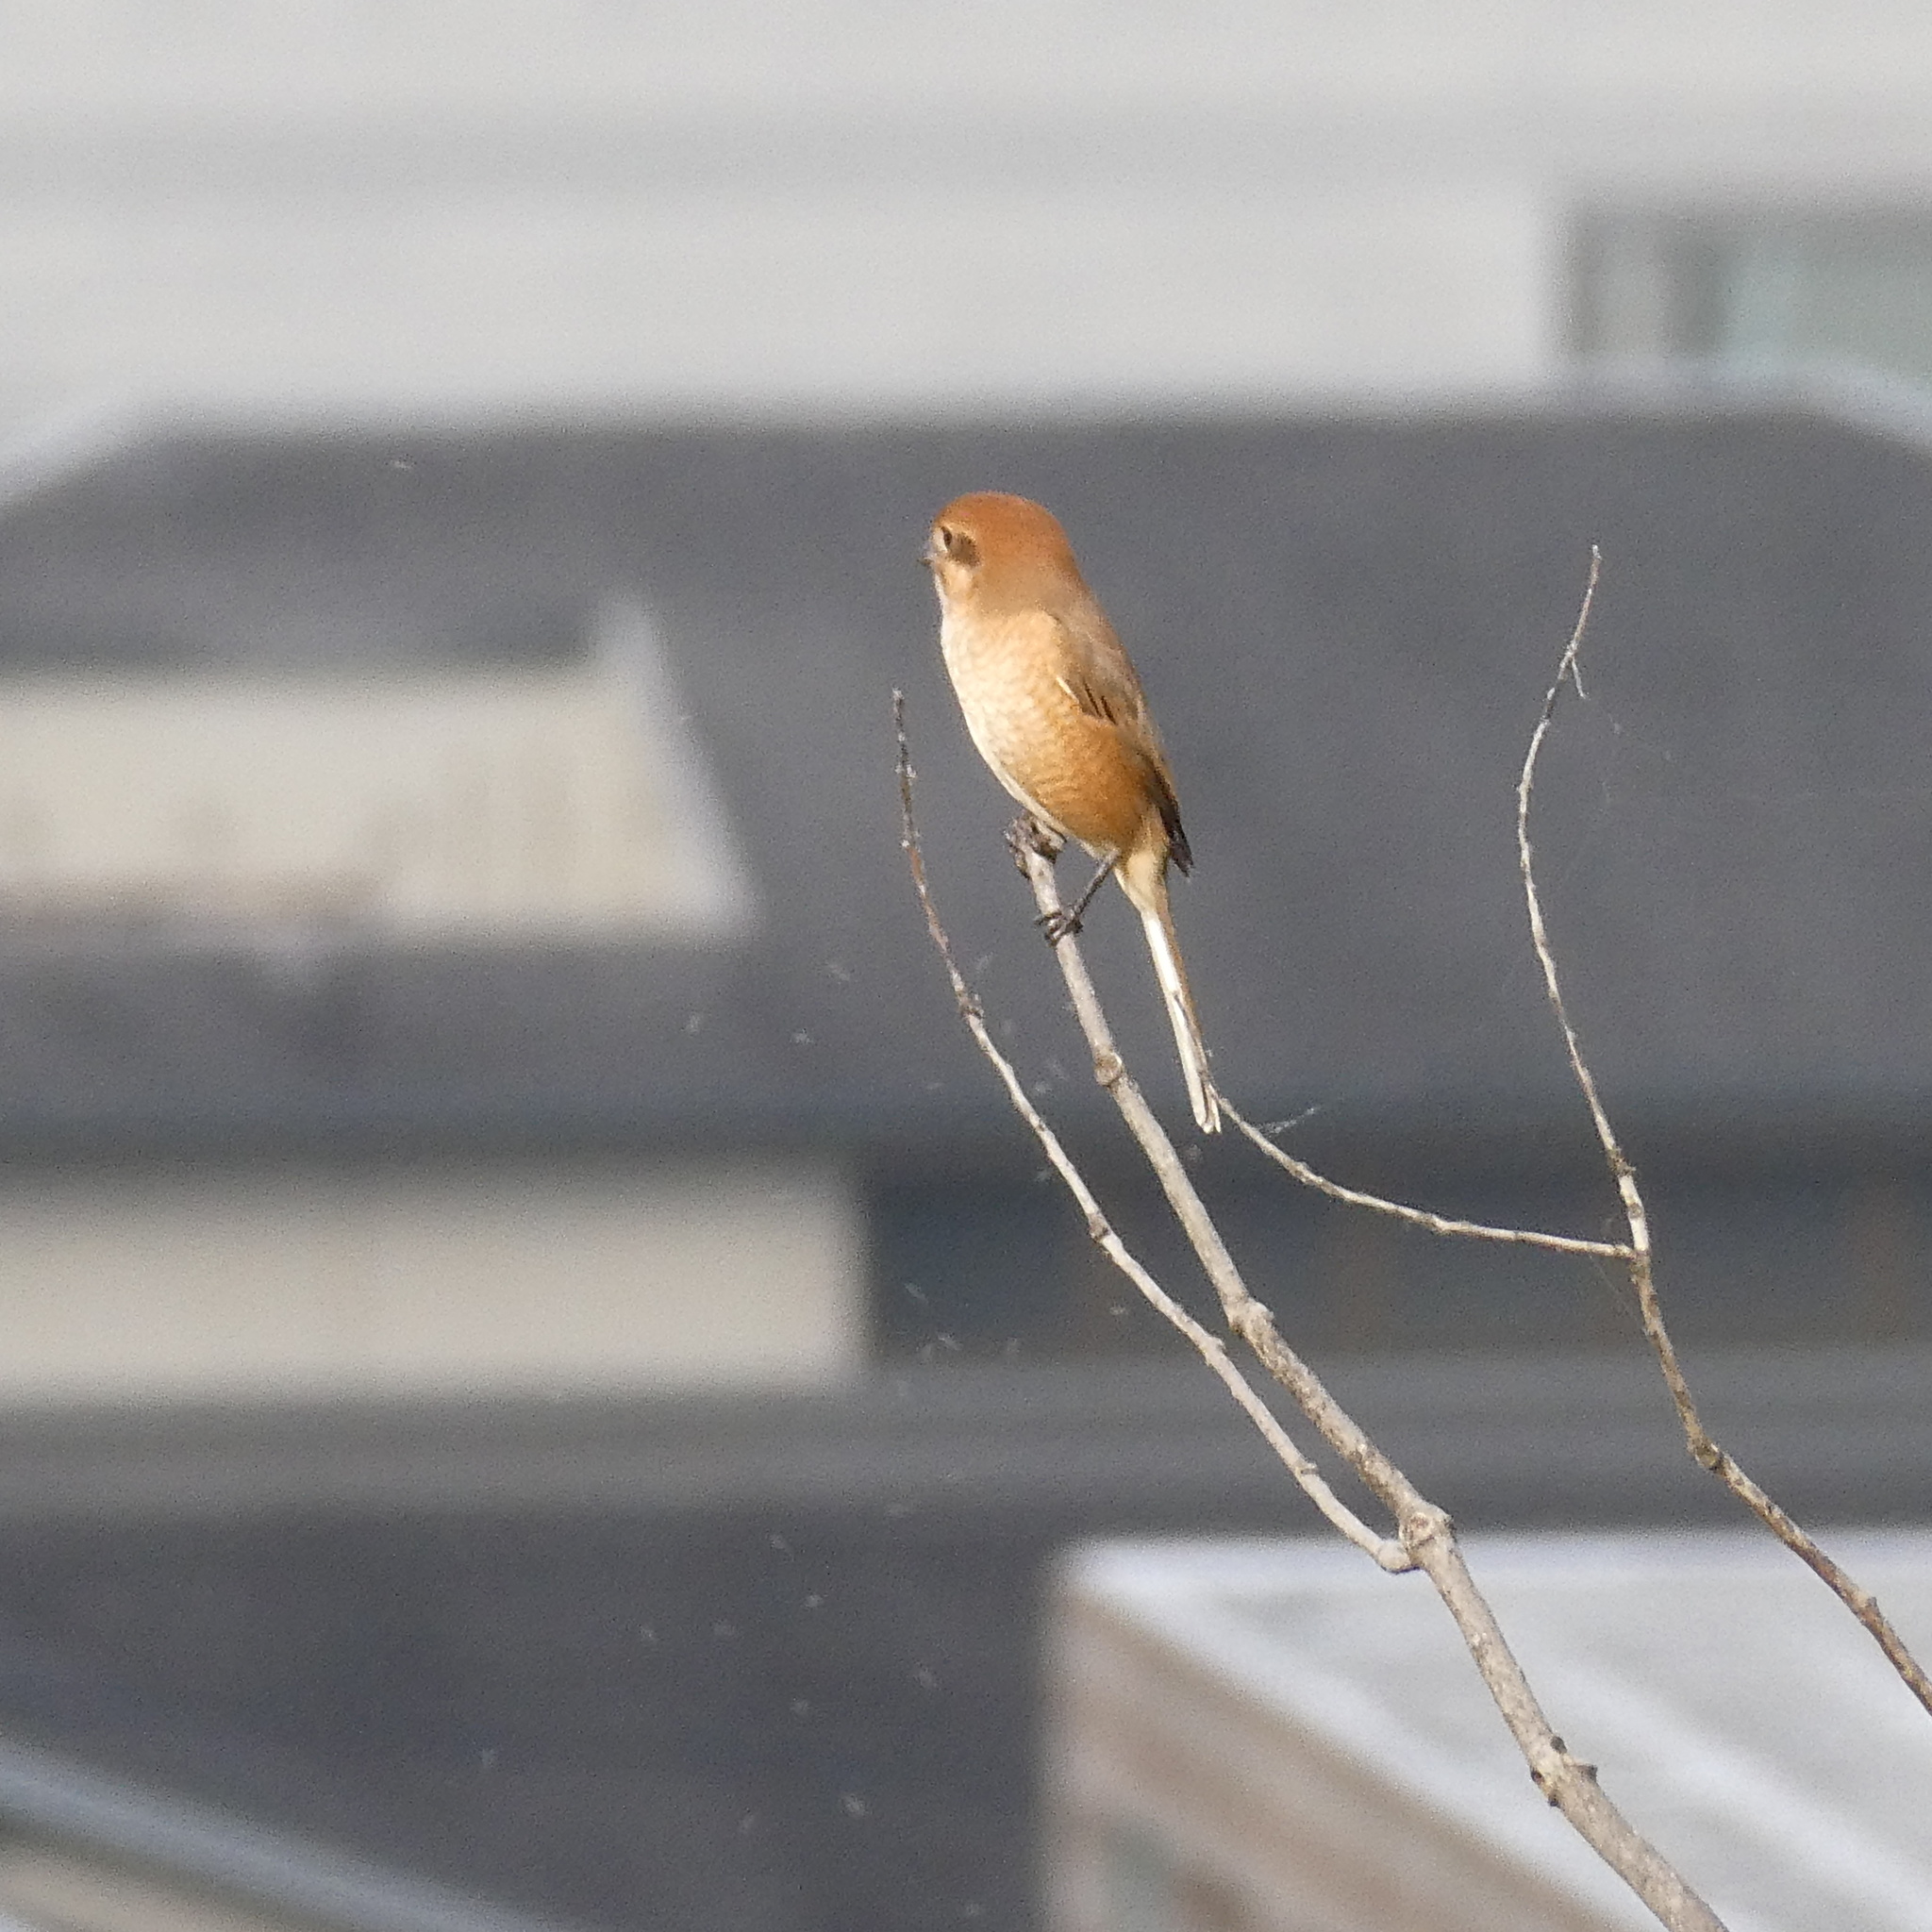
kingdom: Animalia
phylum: Chordata
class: Aves
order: Passeriformes
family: Laniidae
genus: Lanius
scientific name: Lanius bucephalus
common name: Bull-headed shrike
